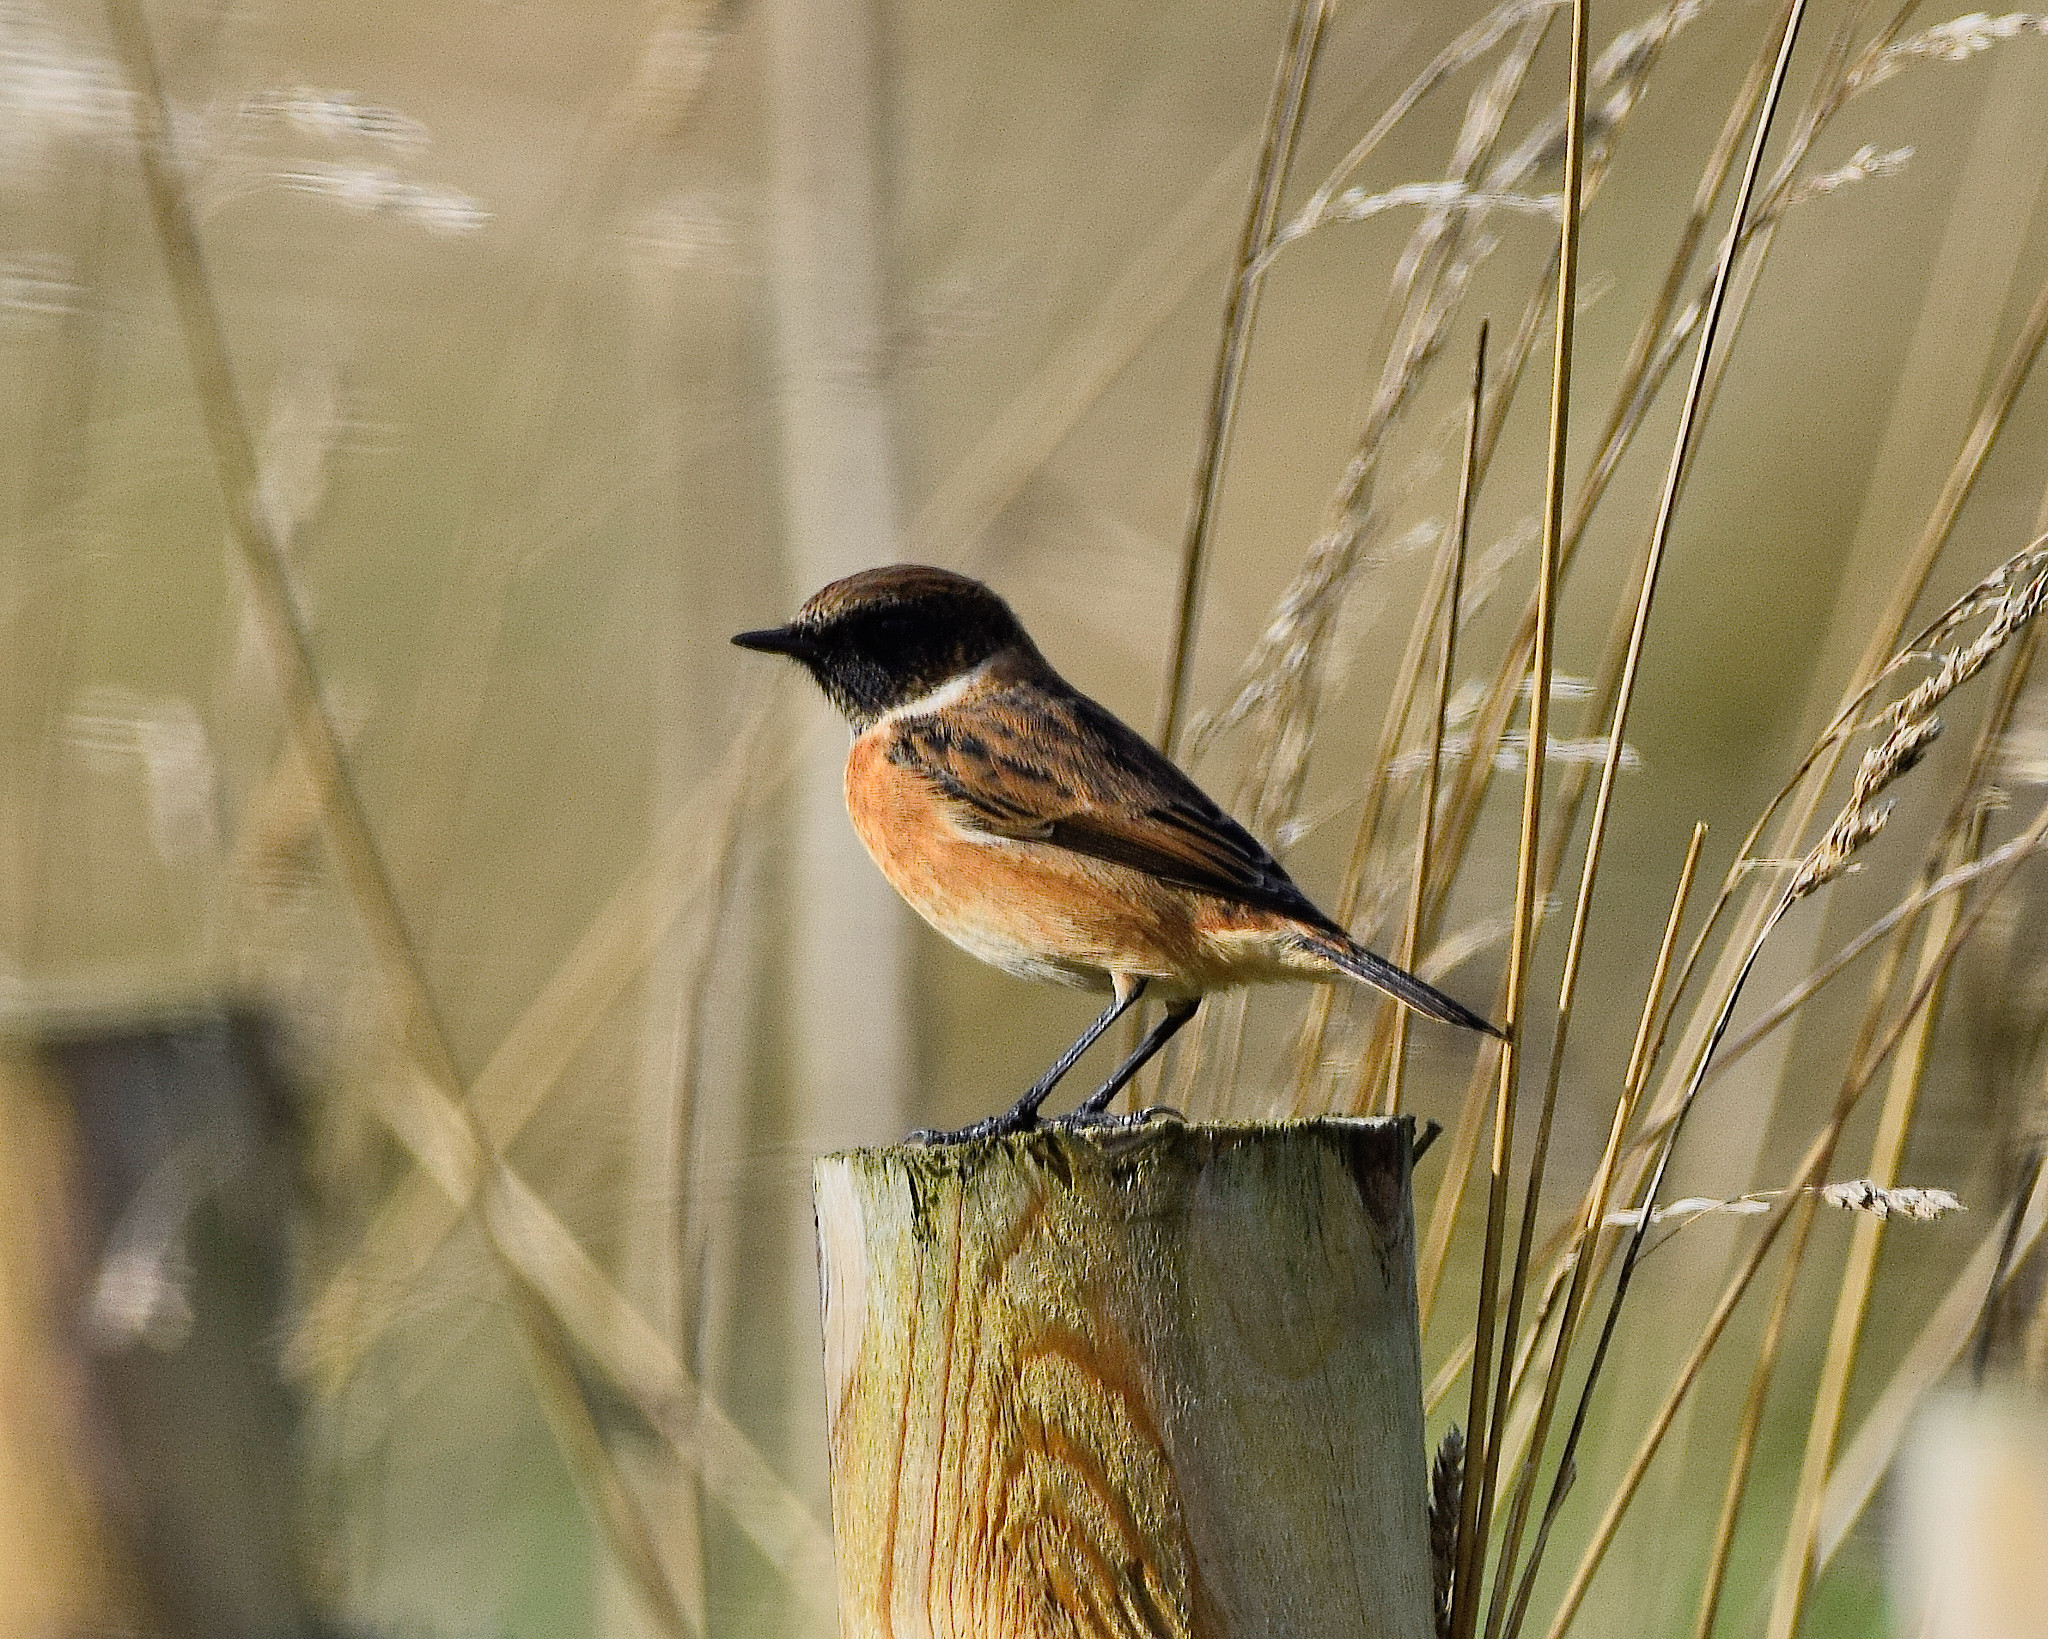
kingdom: Animalia
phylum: Chordata
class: Aves
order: Passeriformes
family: Muscicapidae
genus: Saxicola
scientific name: Saxicola rubicola
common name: European stonechat
